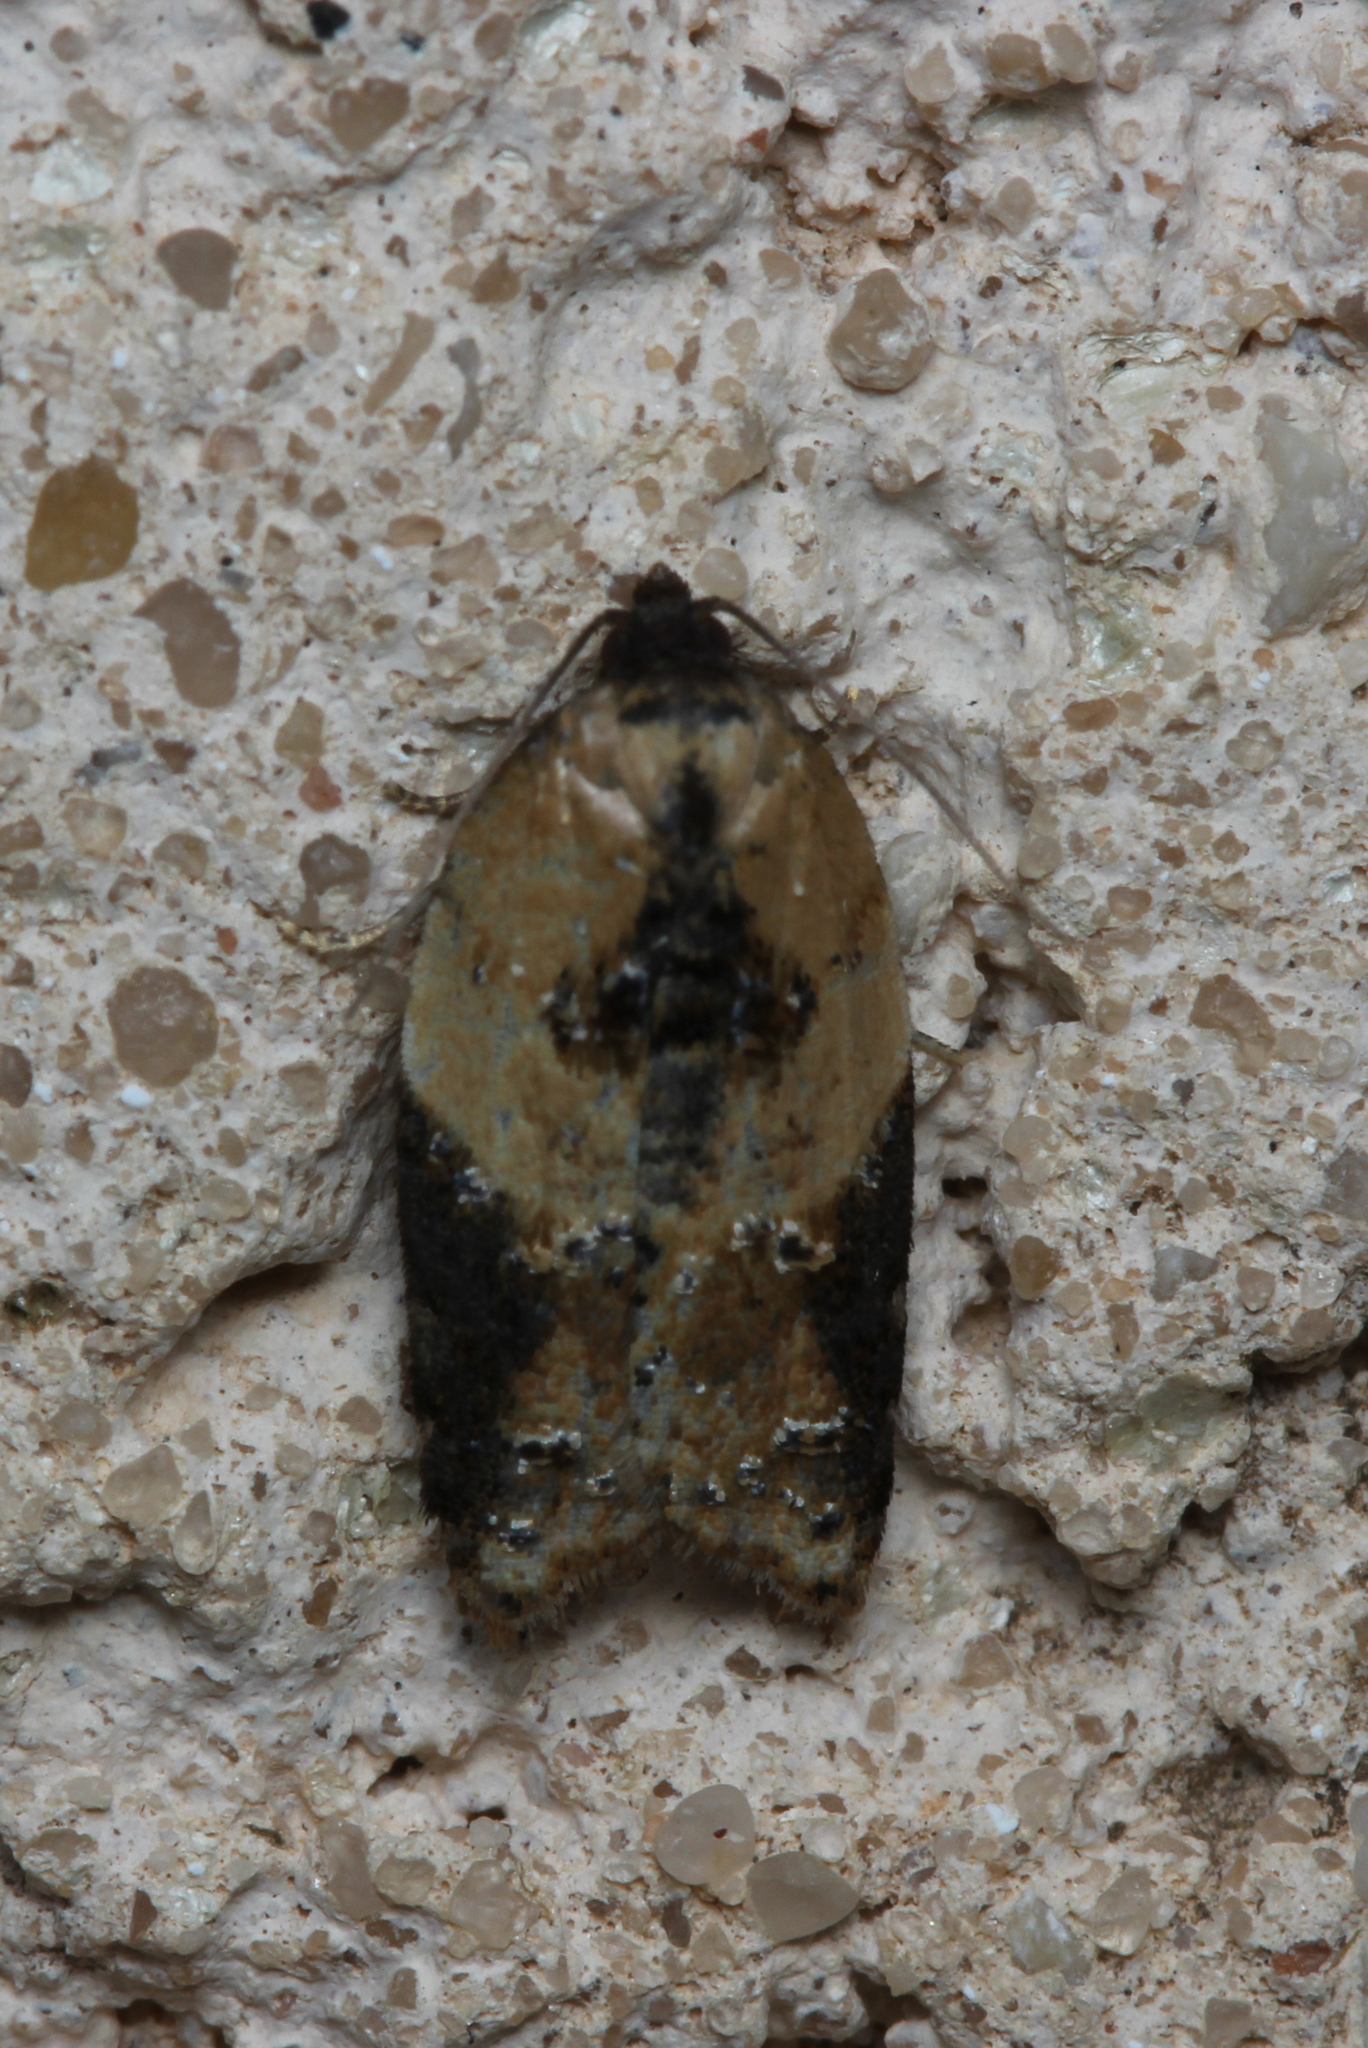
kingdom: Animalia
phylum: Arthropoda
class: Insecta
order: Lepidoptera
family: Tortricidae
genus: Acleris
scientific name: Acleris variegana
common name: Garden rose tortrix
